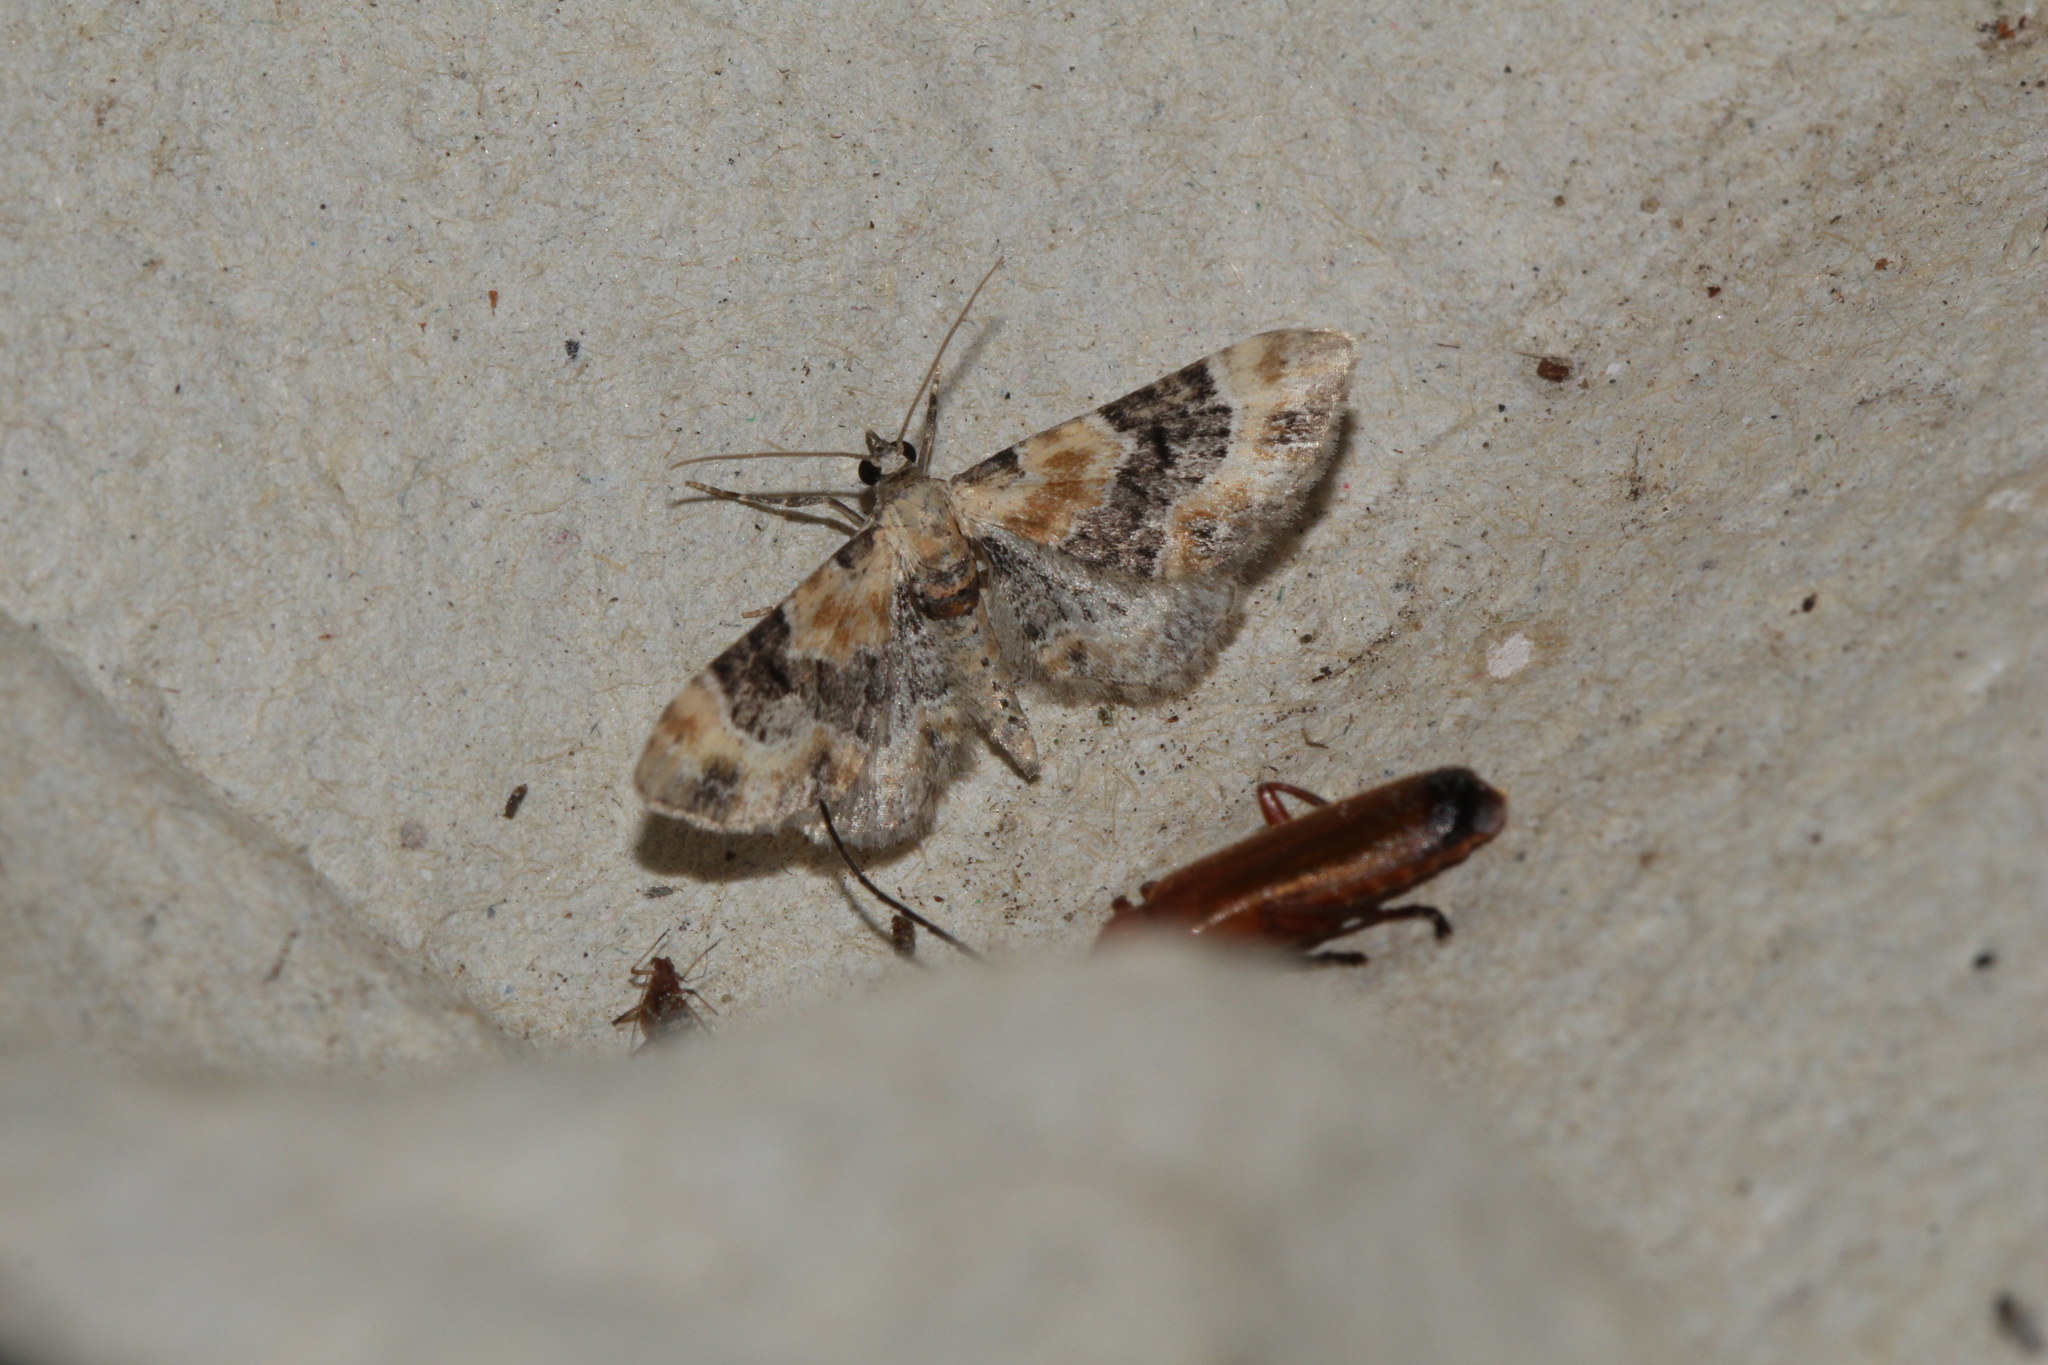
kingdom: Animalia
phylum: Arthropoda
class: Insecta
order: Lepidoptera
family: Geometridae
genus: Eupithecia
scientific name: Eupithecia linariata
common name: Toadflax pug
